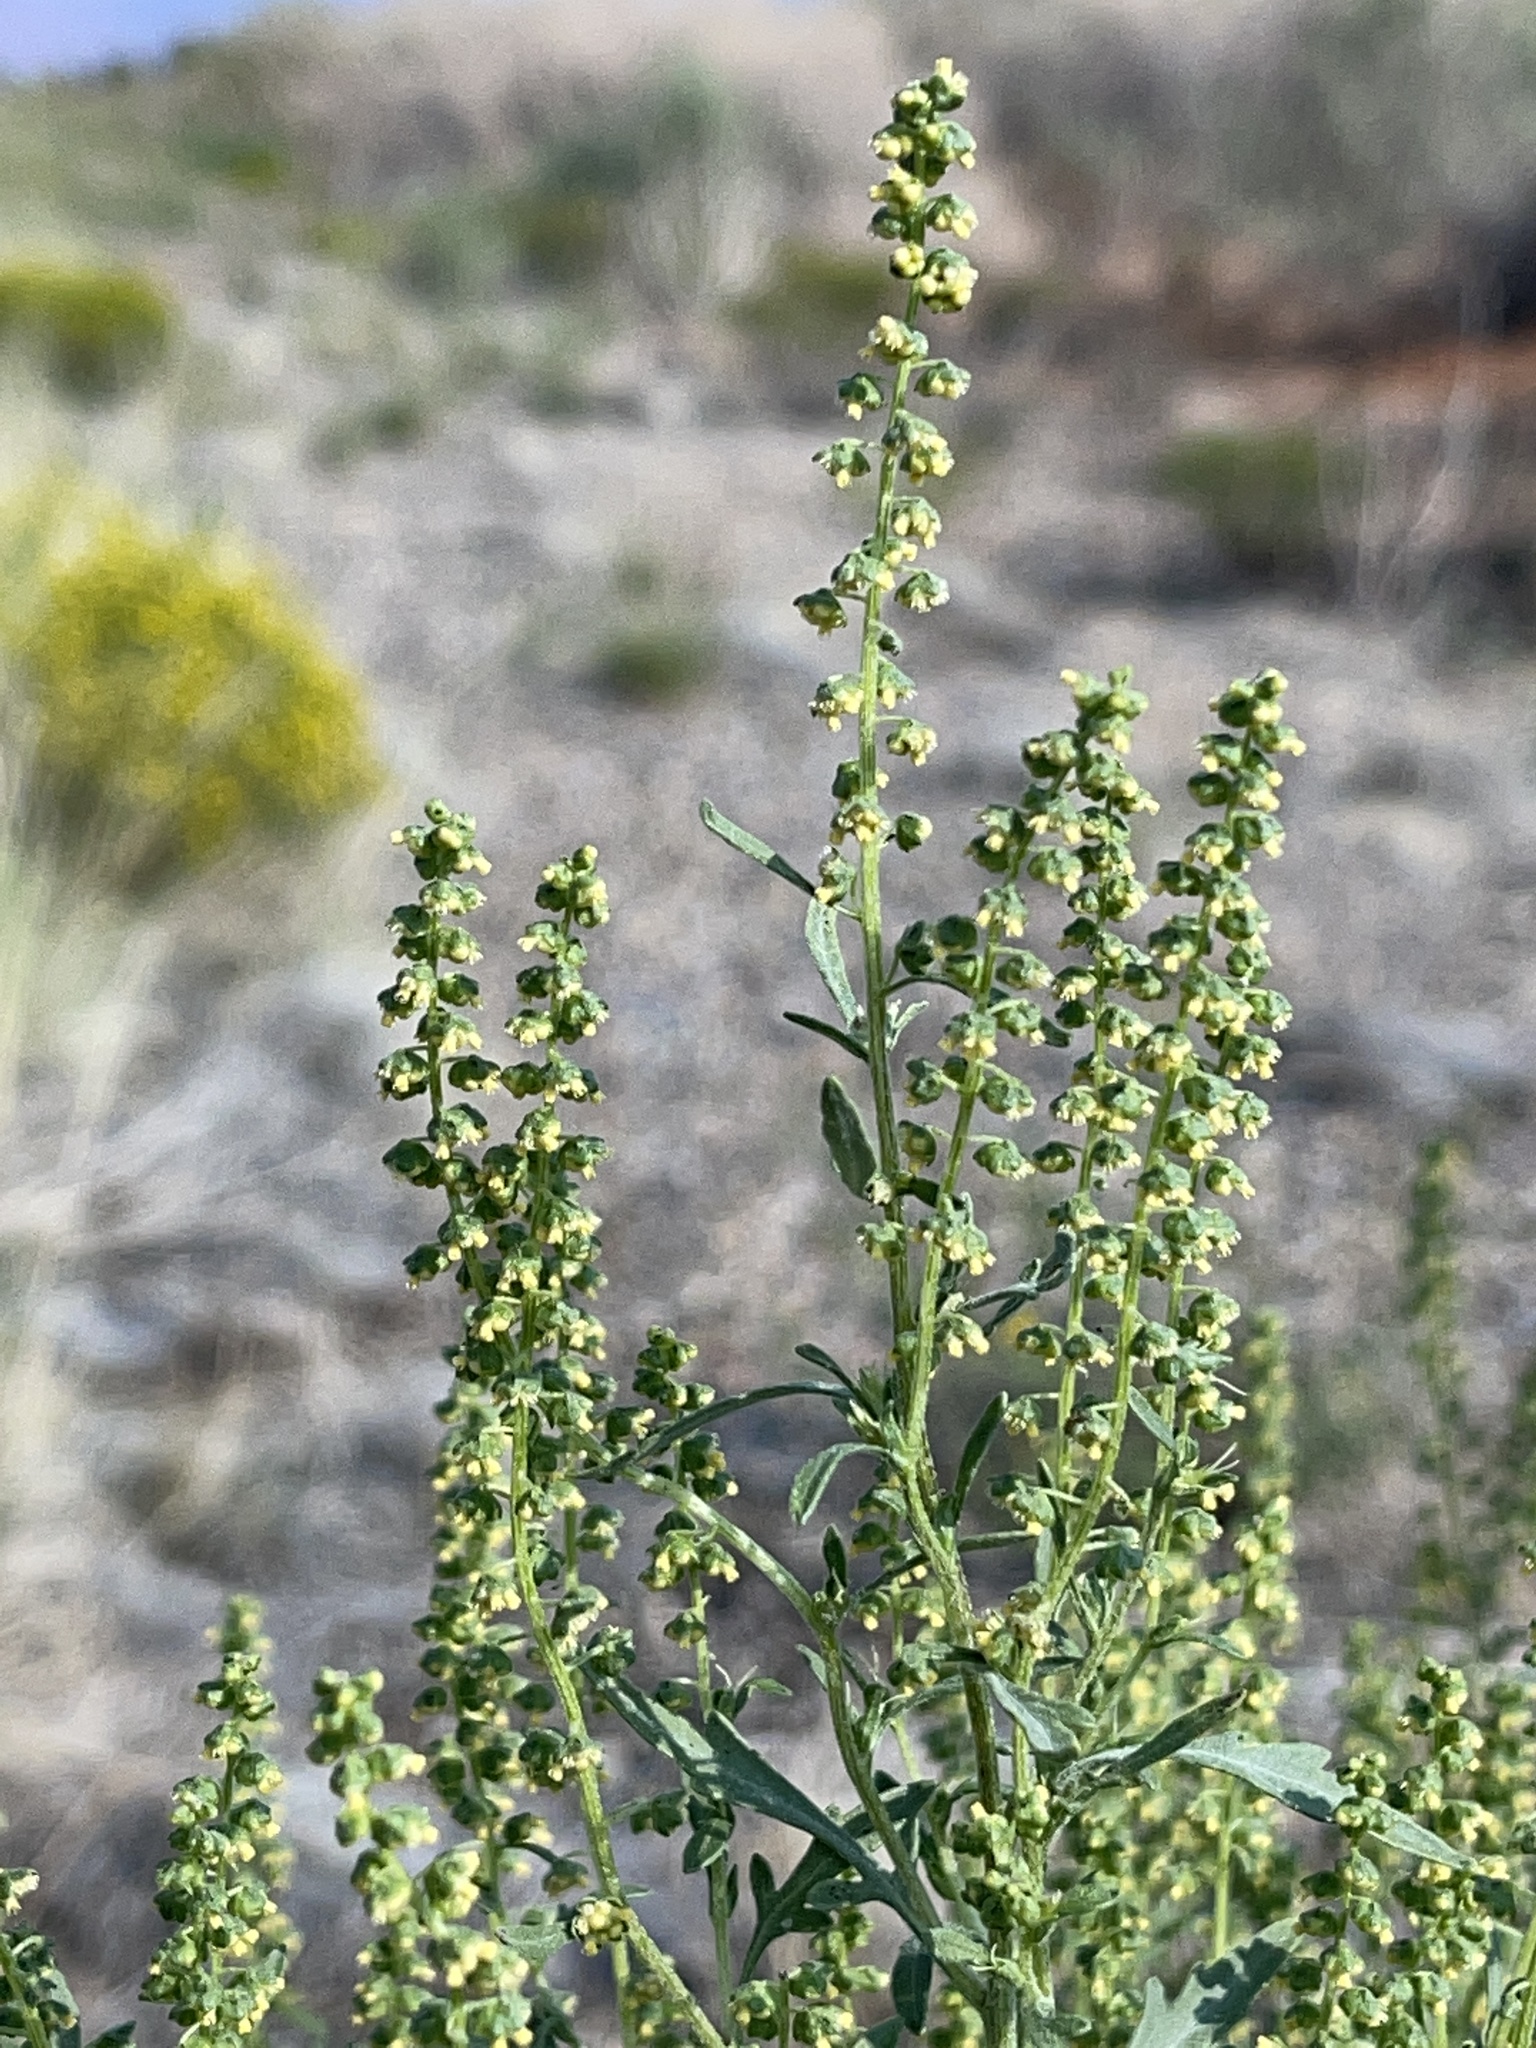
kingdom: Plantae
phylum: Tracheophyta
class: Magnoliopsida
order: Asterales
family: Asteraceae
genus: Ambrosia
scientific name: Ambrosia acanthicarpa
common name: Hooker's bur ragweed
